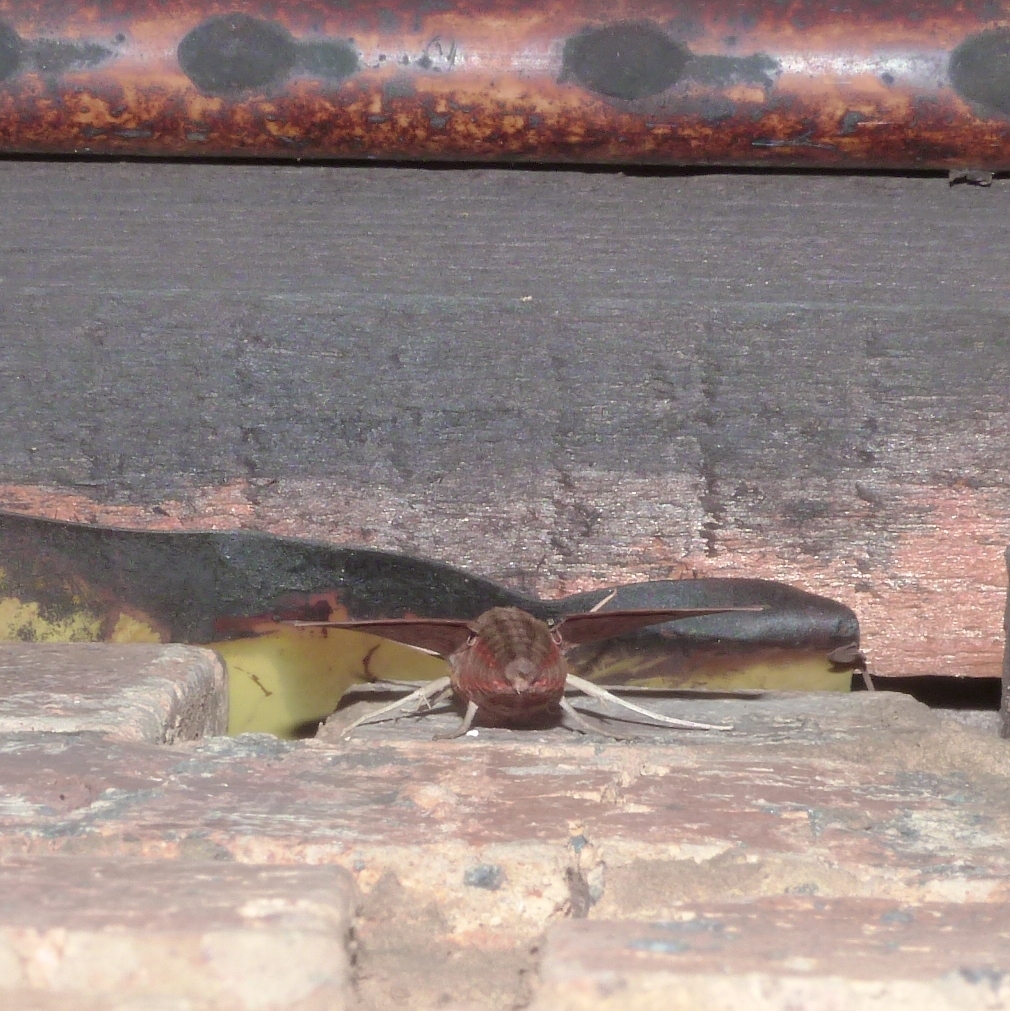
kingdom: Animalia
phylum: Arthropoda
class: Insecta
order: Lepidoptera
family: Sphingidae
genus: Hippotion
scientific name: Hippotion eson
